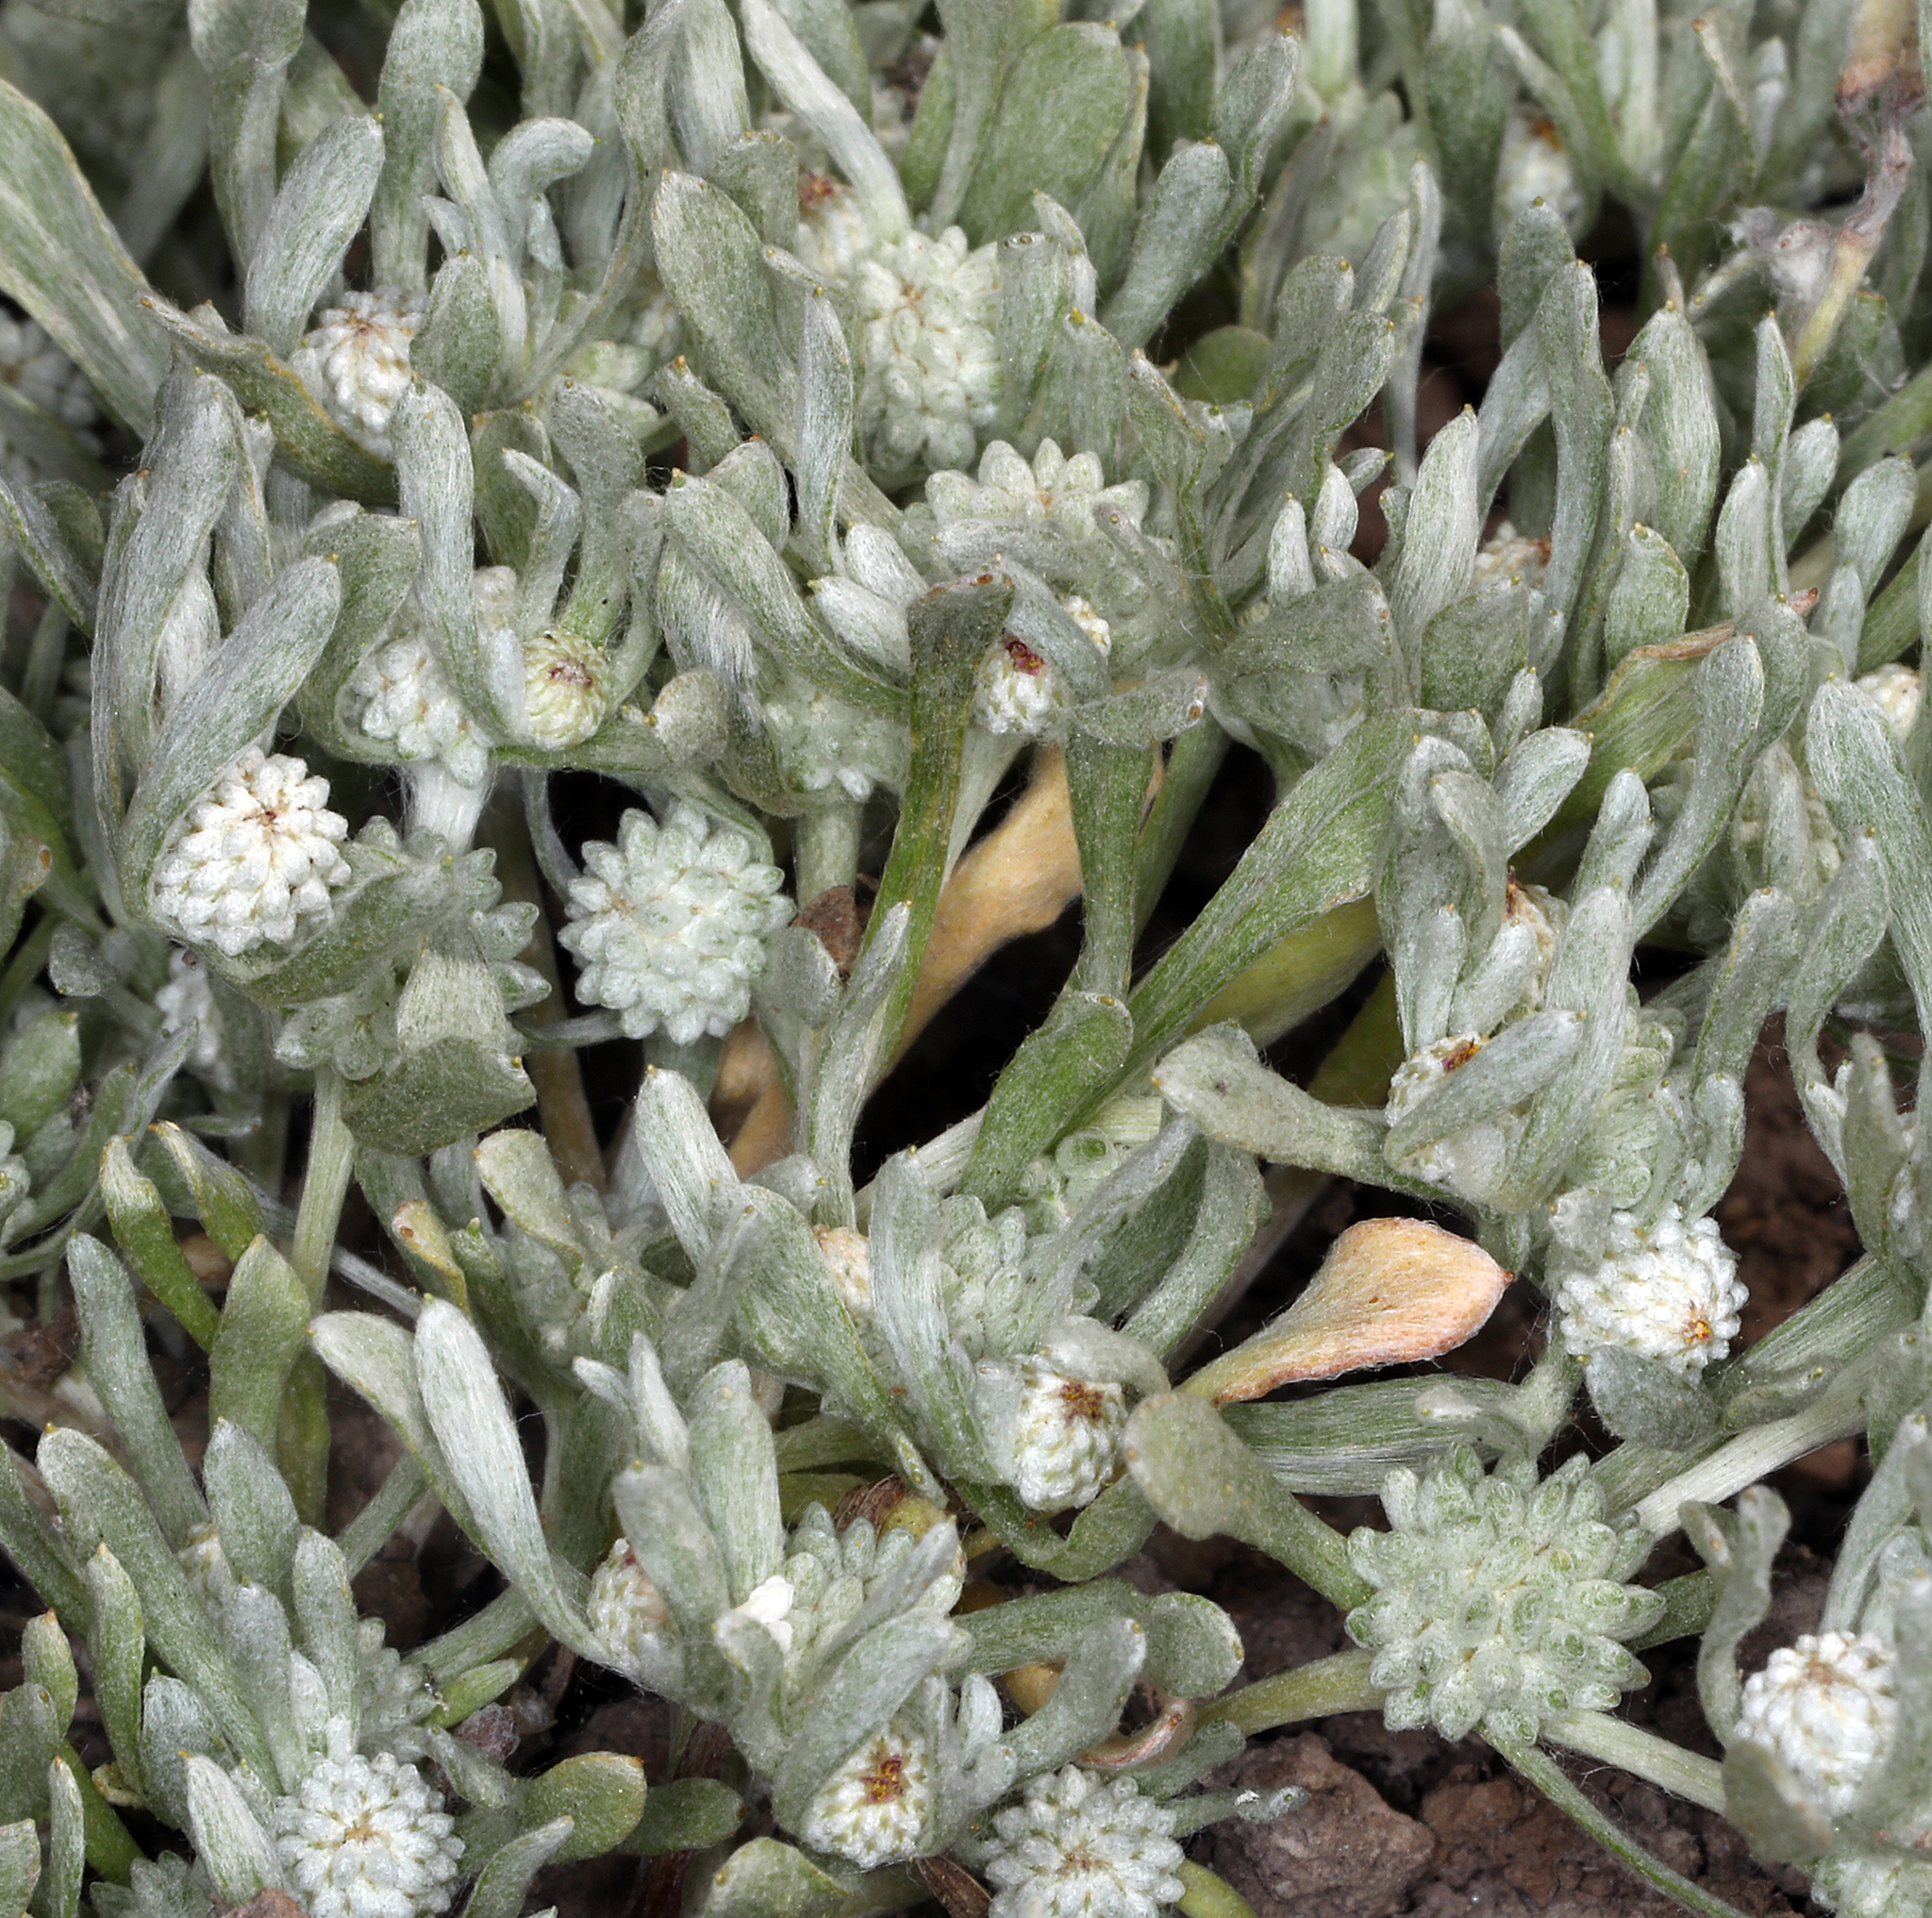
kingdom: Plantae
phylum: Tracheophyta
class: Magnoliopsida
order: Asterales
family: Asteraceae
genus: Psilocarphus
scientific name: Psilocarphus tenellus
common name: Slender woolly-marbles
